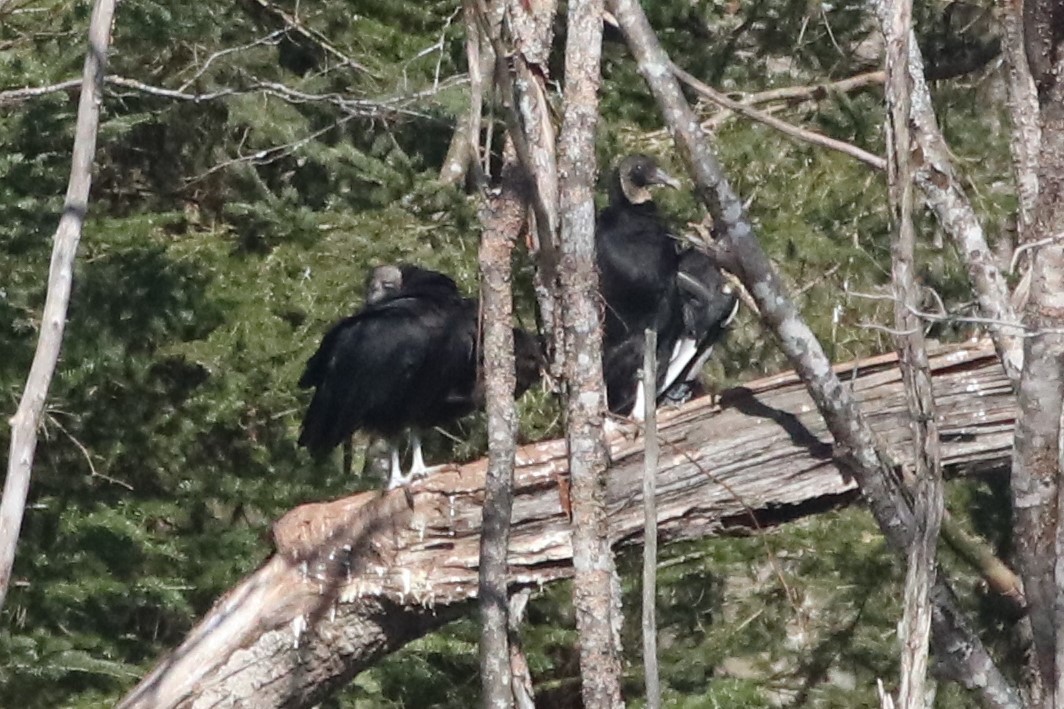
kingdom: Animalia
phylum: Chordata
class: Aves
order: Accipitriformes
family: Cathartidae
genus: Coragyps
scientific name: Coragyps atratus
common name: Black vulture
